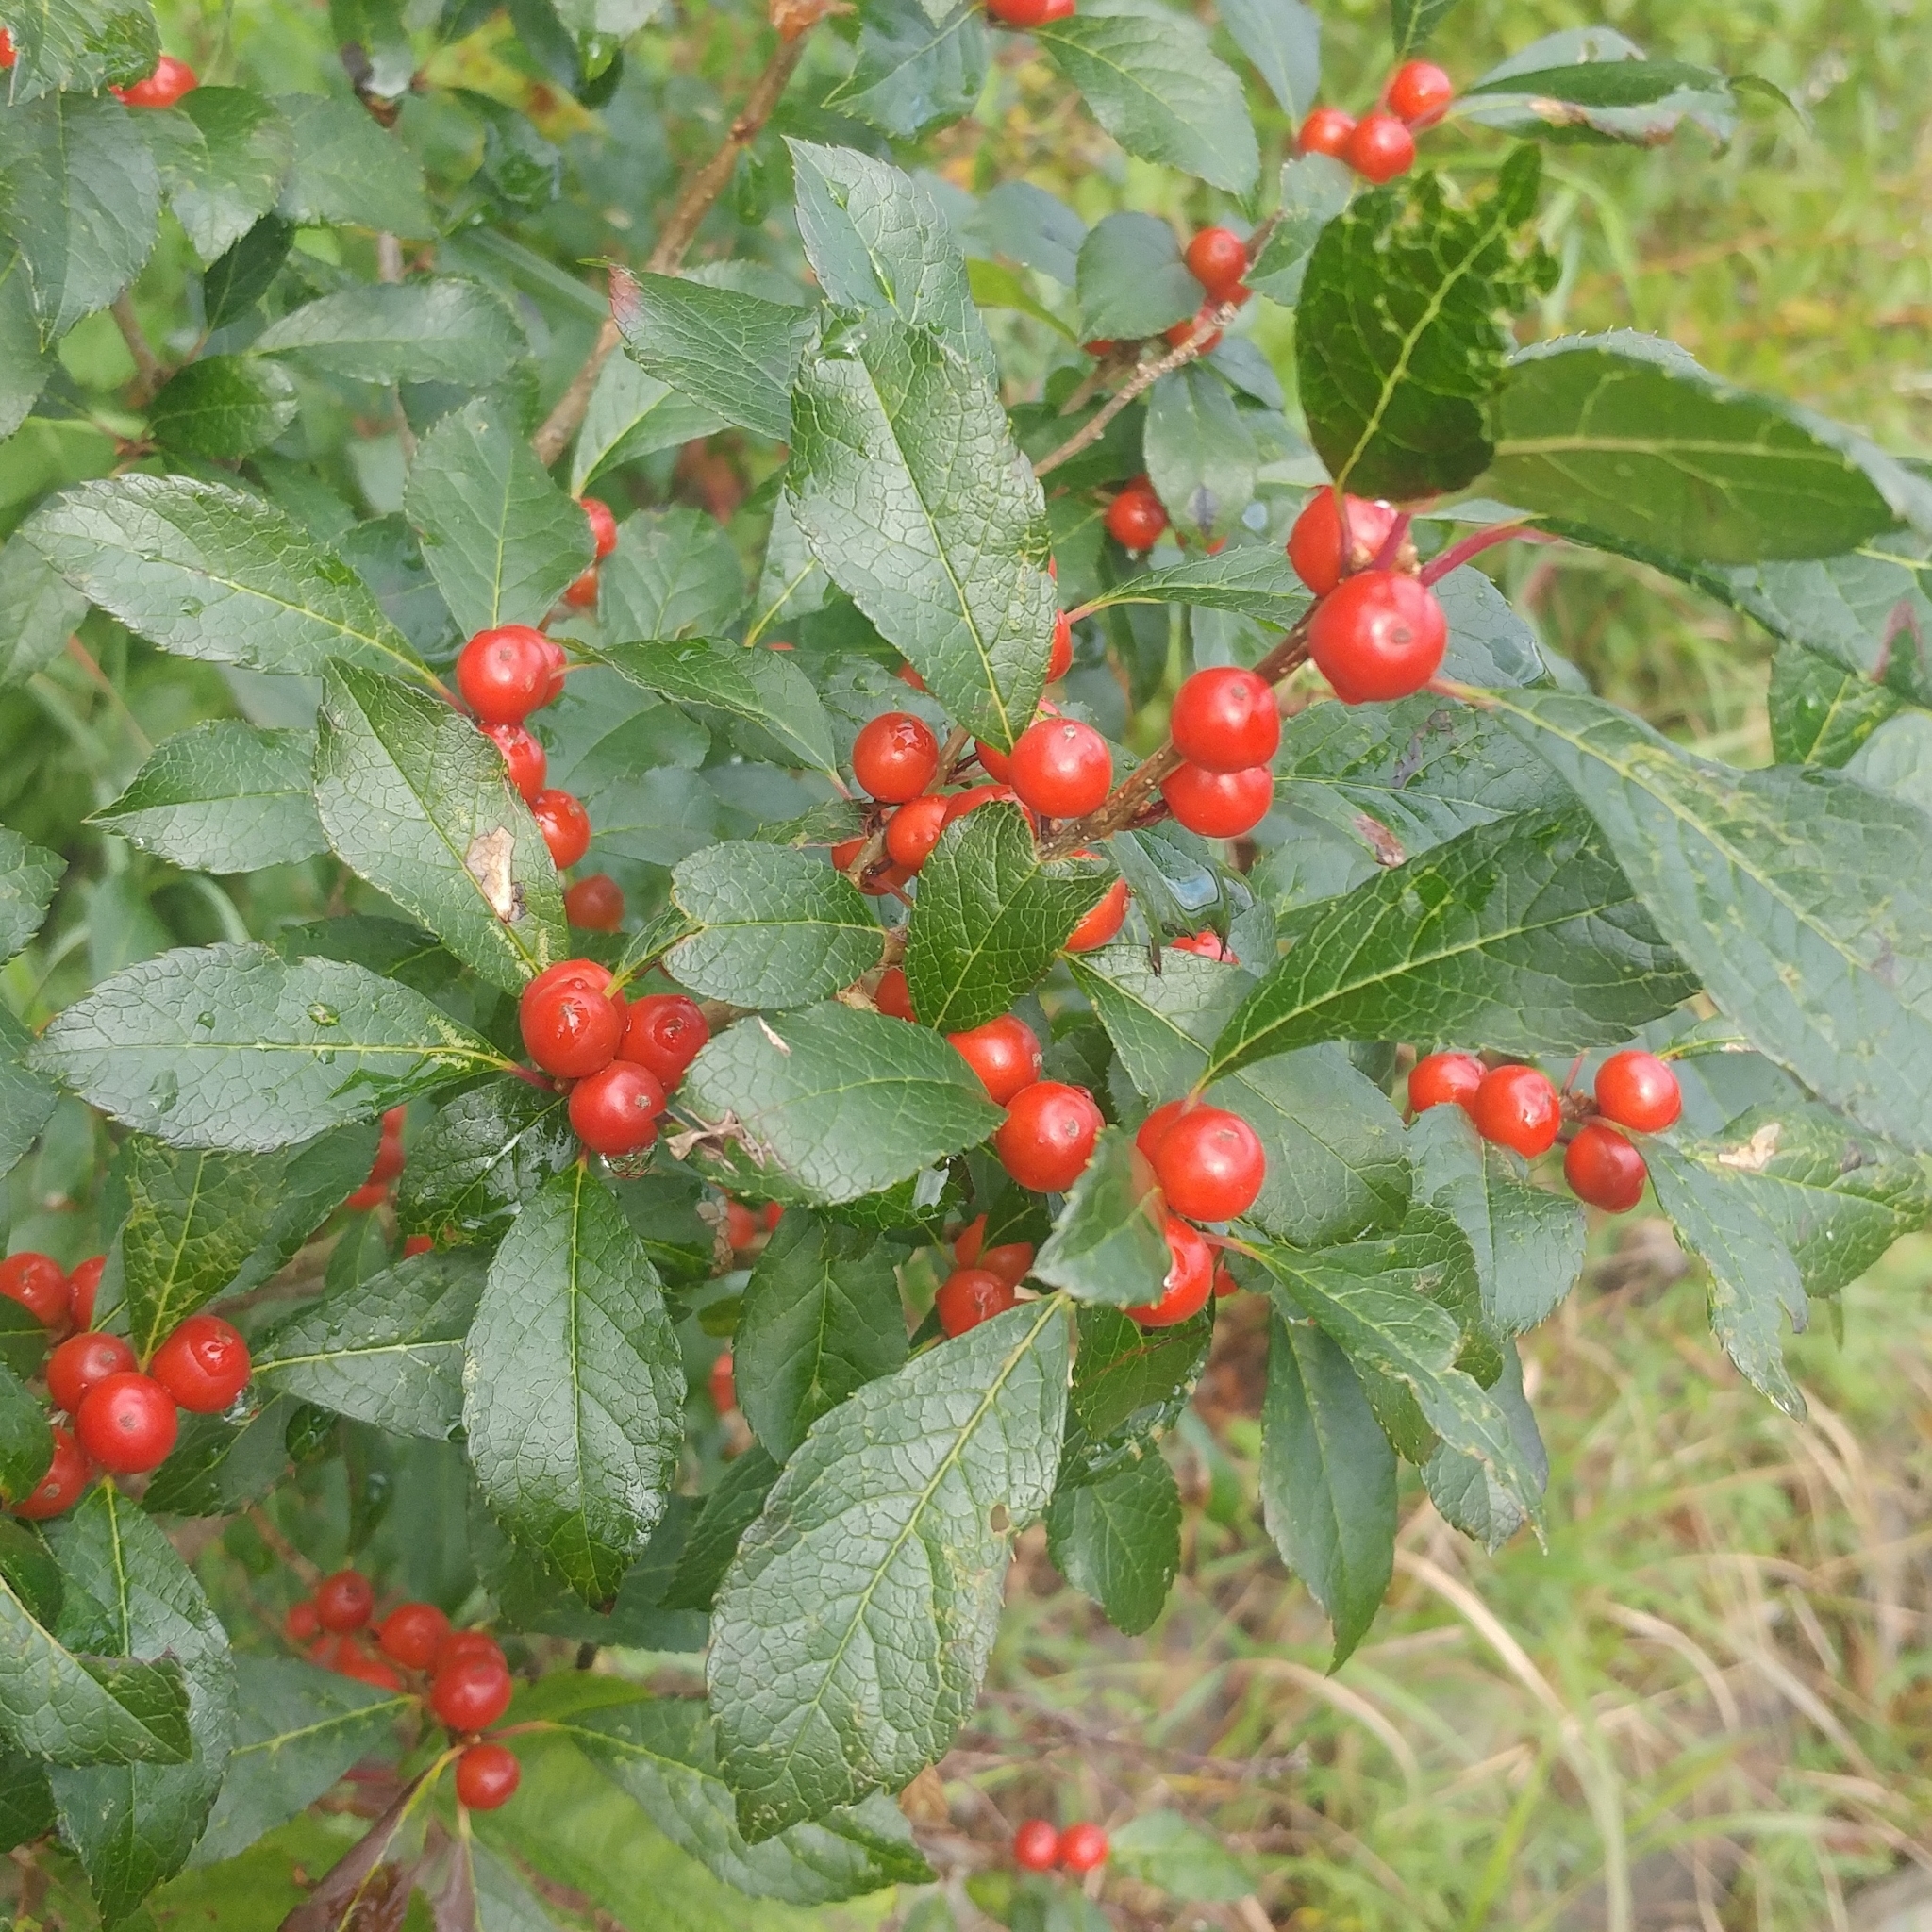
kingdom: Plantae
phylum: Tracheophyta
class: Magnoliopsida
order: Aquifoliales
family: Aquifoliaceae
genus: Ilex
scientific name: Ilex verticillata
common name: Virginia winterberry
